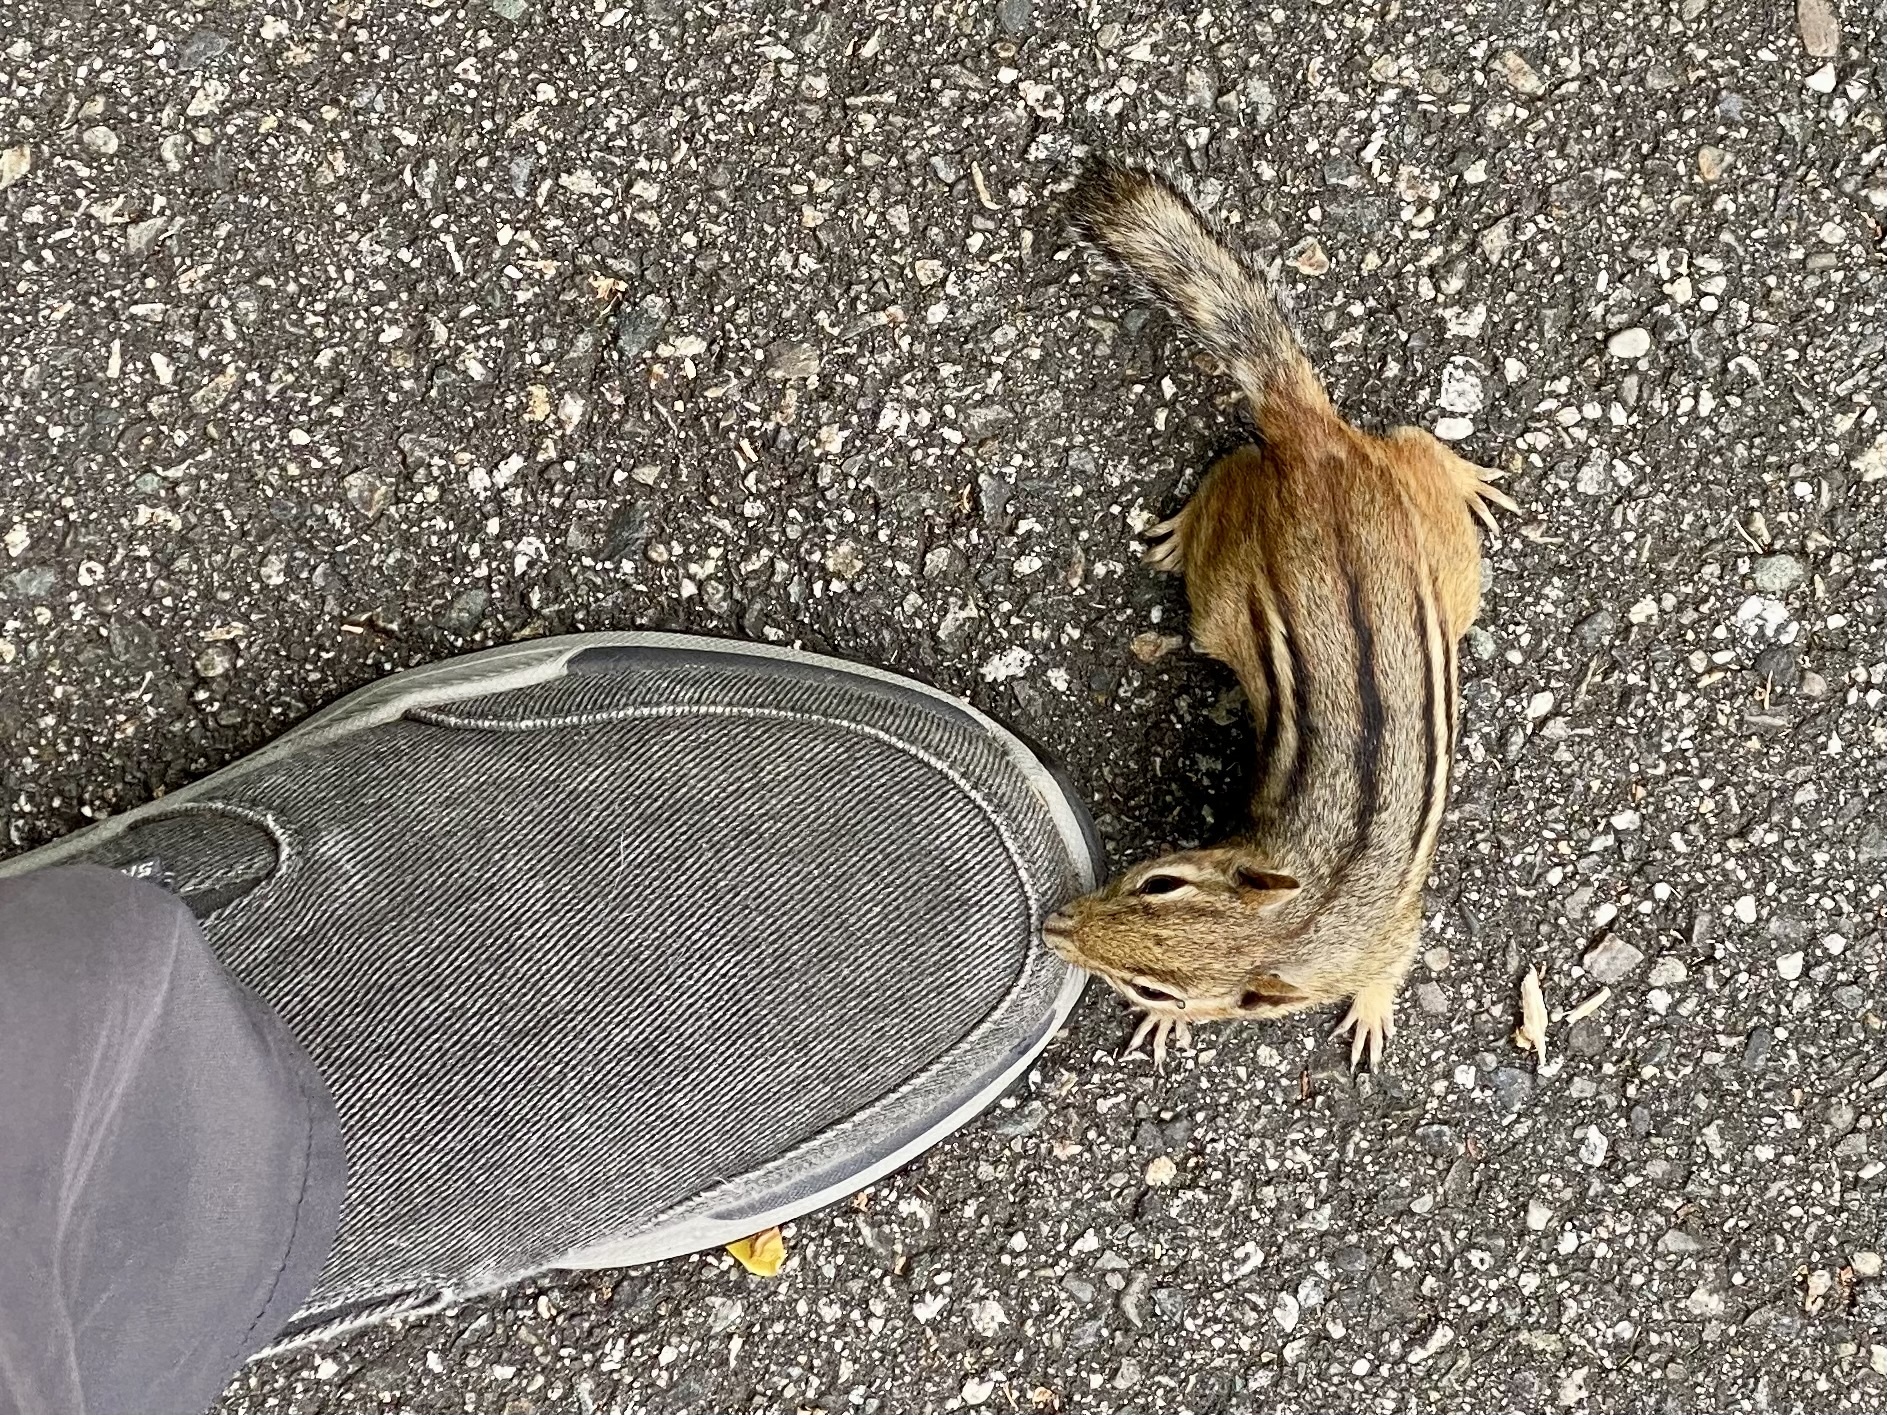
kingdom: Animalia
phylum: Chordata
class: Mammalia
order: Rodentia
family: Sciuridae
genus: Tamias
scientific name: Tamias striatus
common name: Eastern chipmunk
